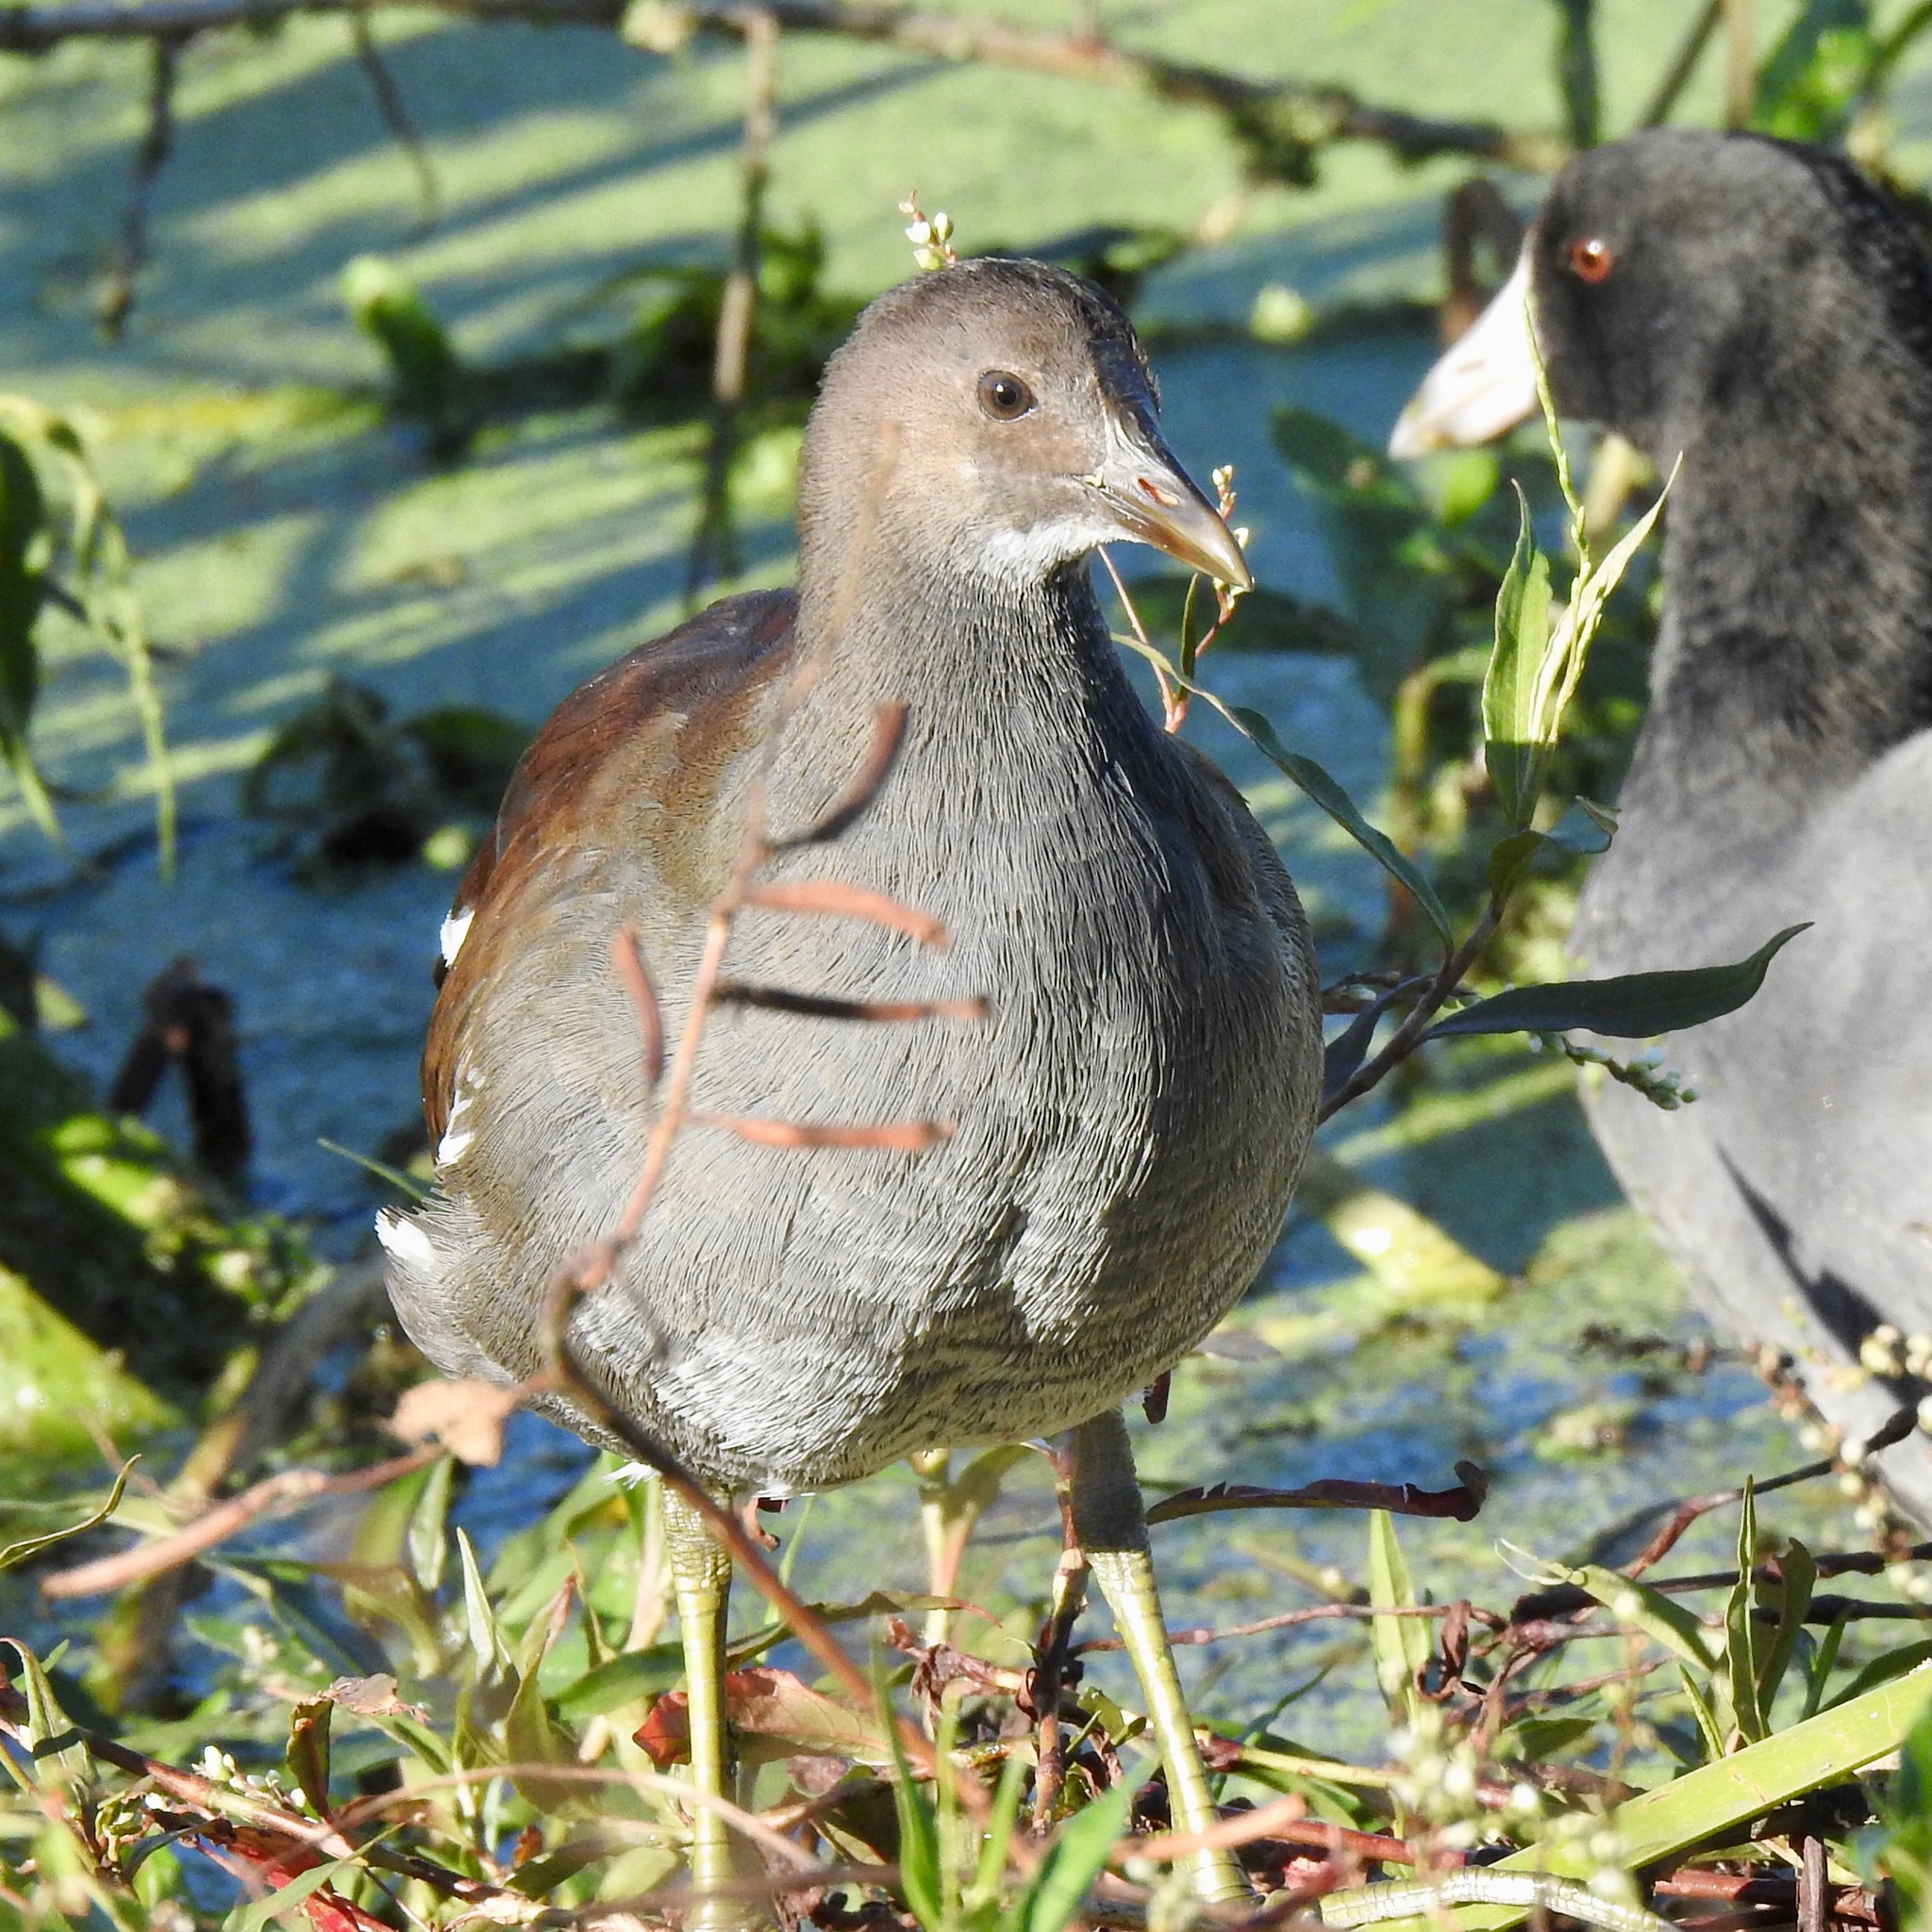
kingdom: Animalia
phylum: Chordata
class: Aves
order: Gruiformes
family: Rallidae
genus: Gallinula
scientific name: Gallinula chloropus
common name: Common moorhen
